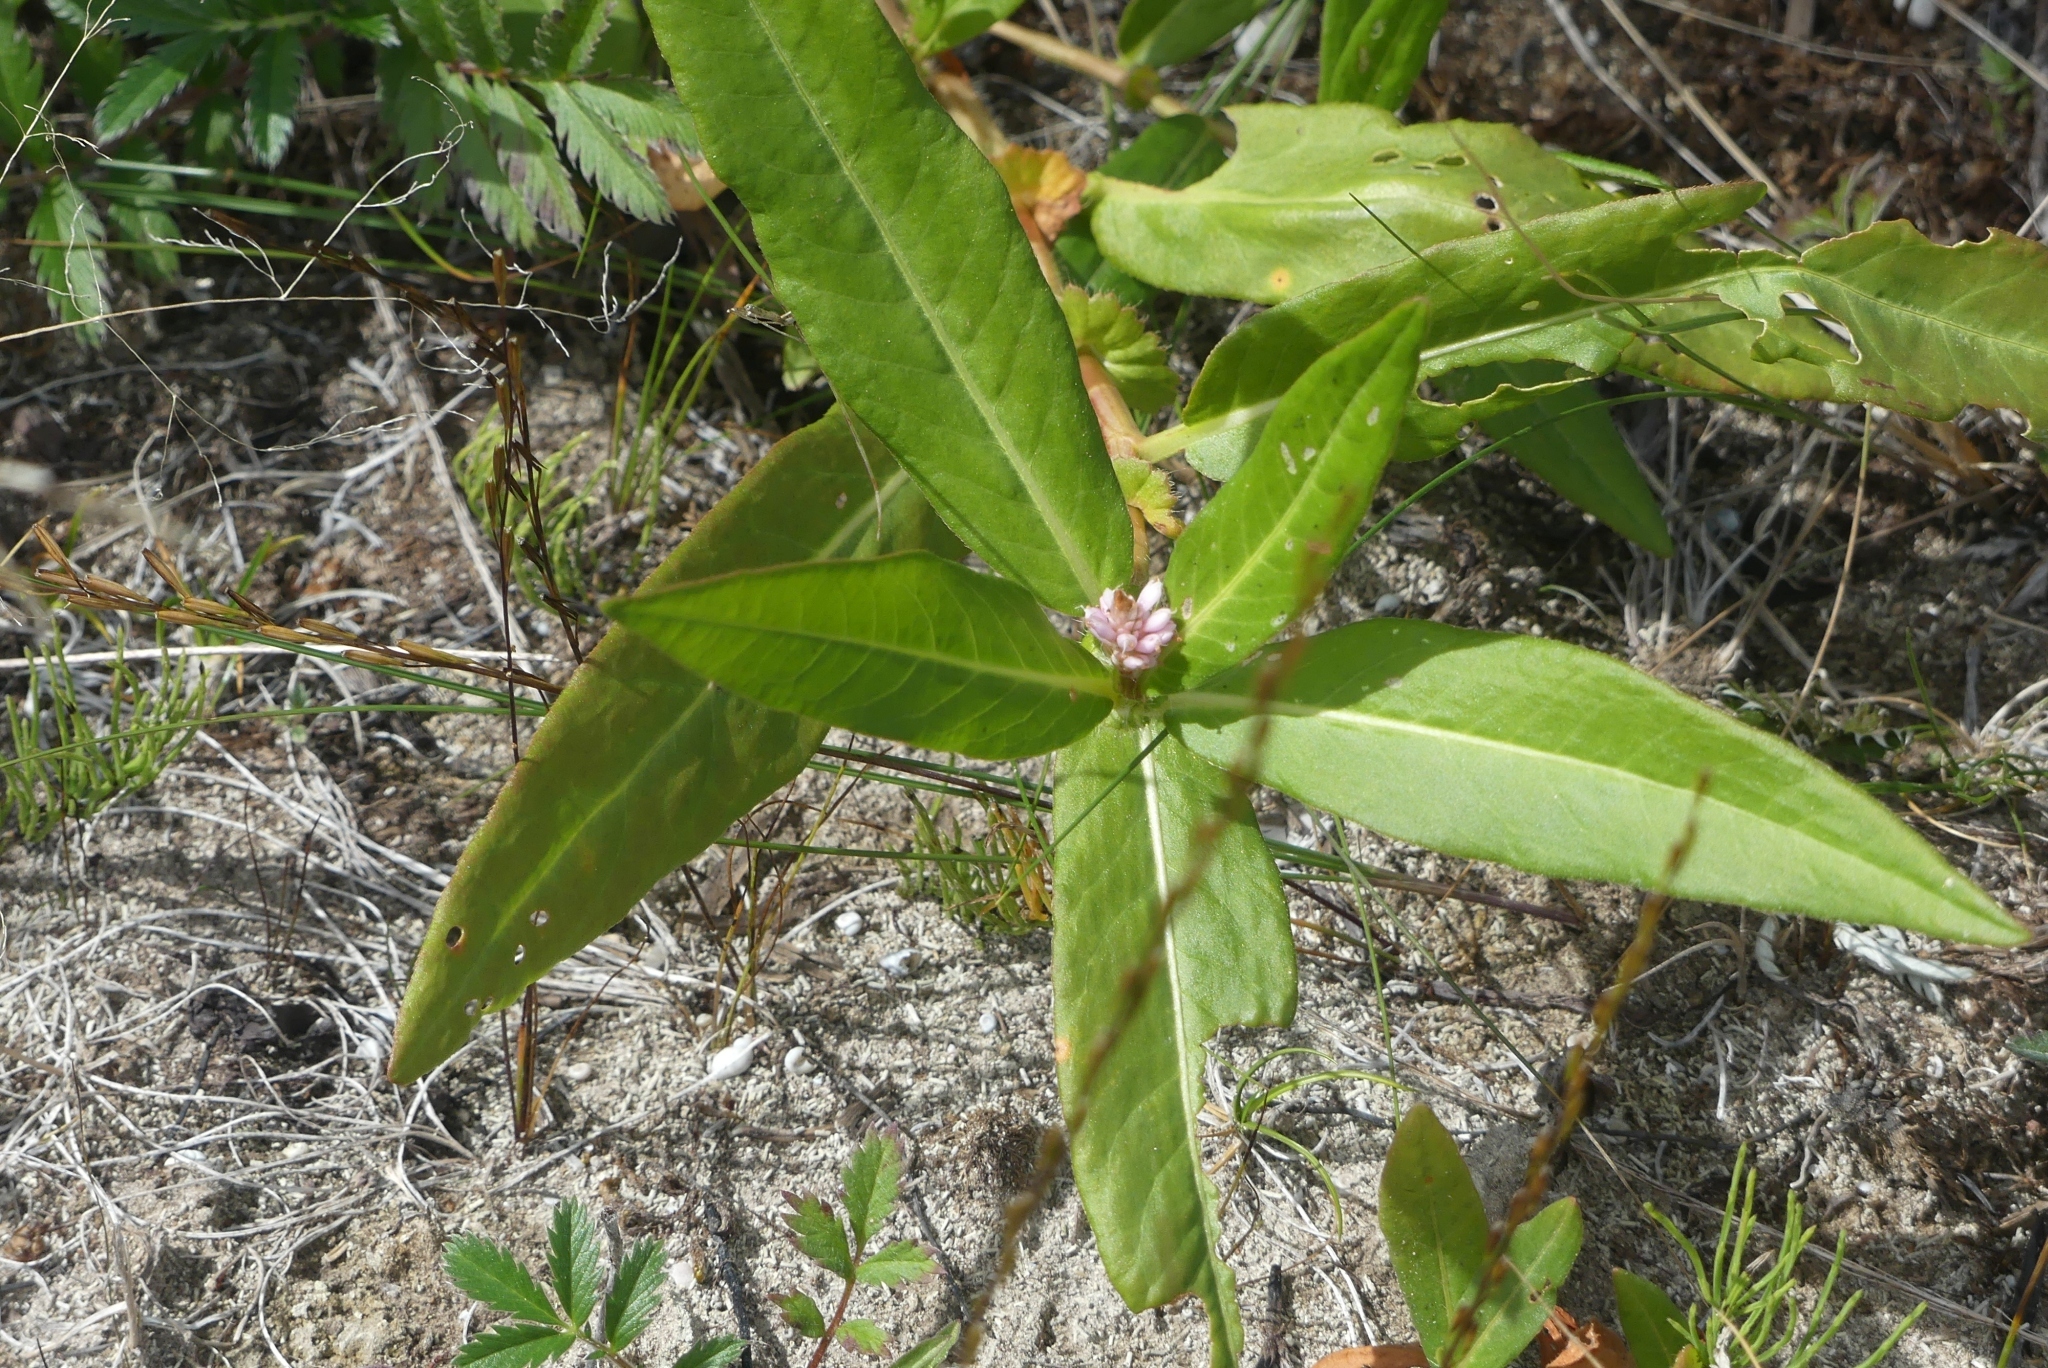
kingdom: Plantae
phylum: Tracheophyta
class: Magnoliopsida
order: Caryophyllales
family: Polygonaceae
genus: Persicaria
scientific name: Persicaria amphibia
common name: Amphibious bistort
